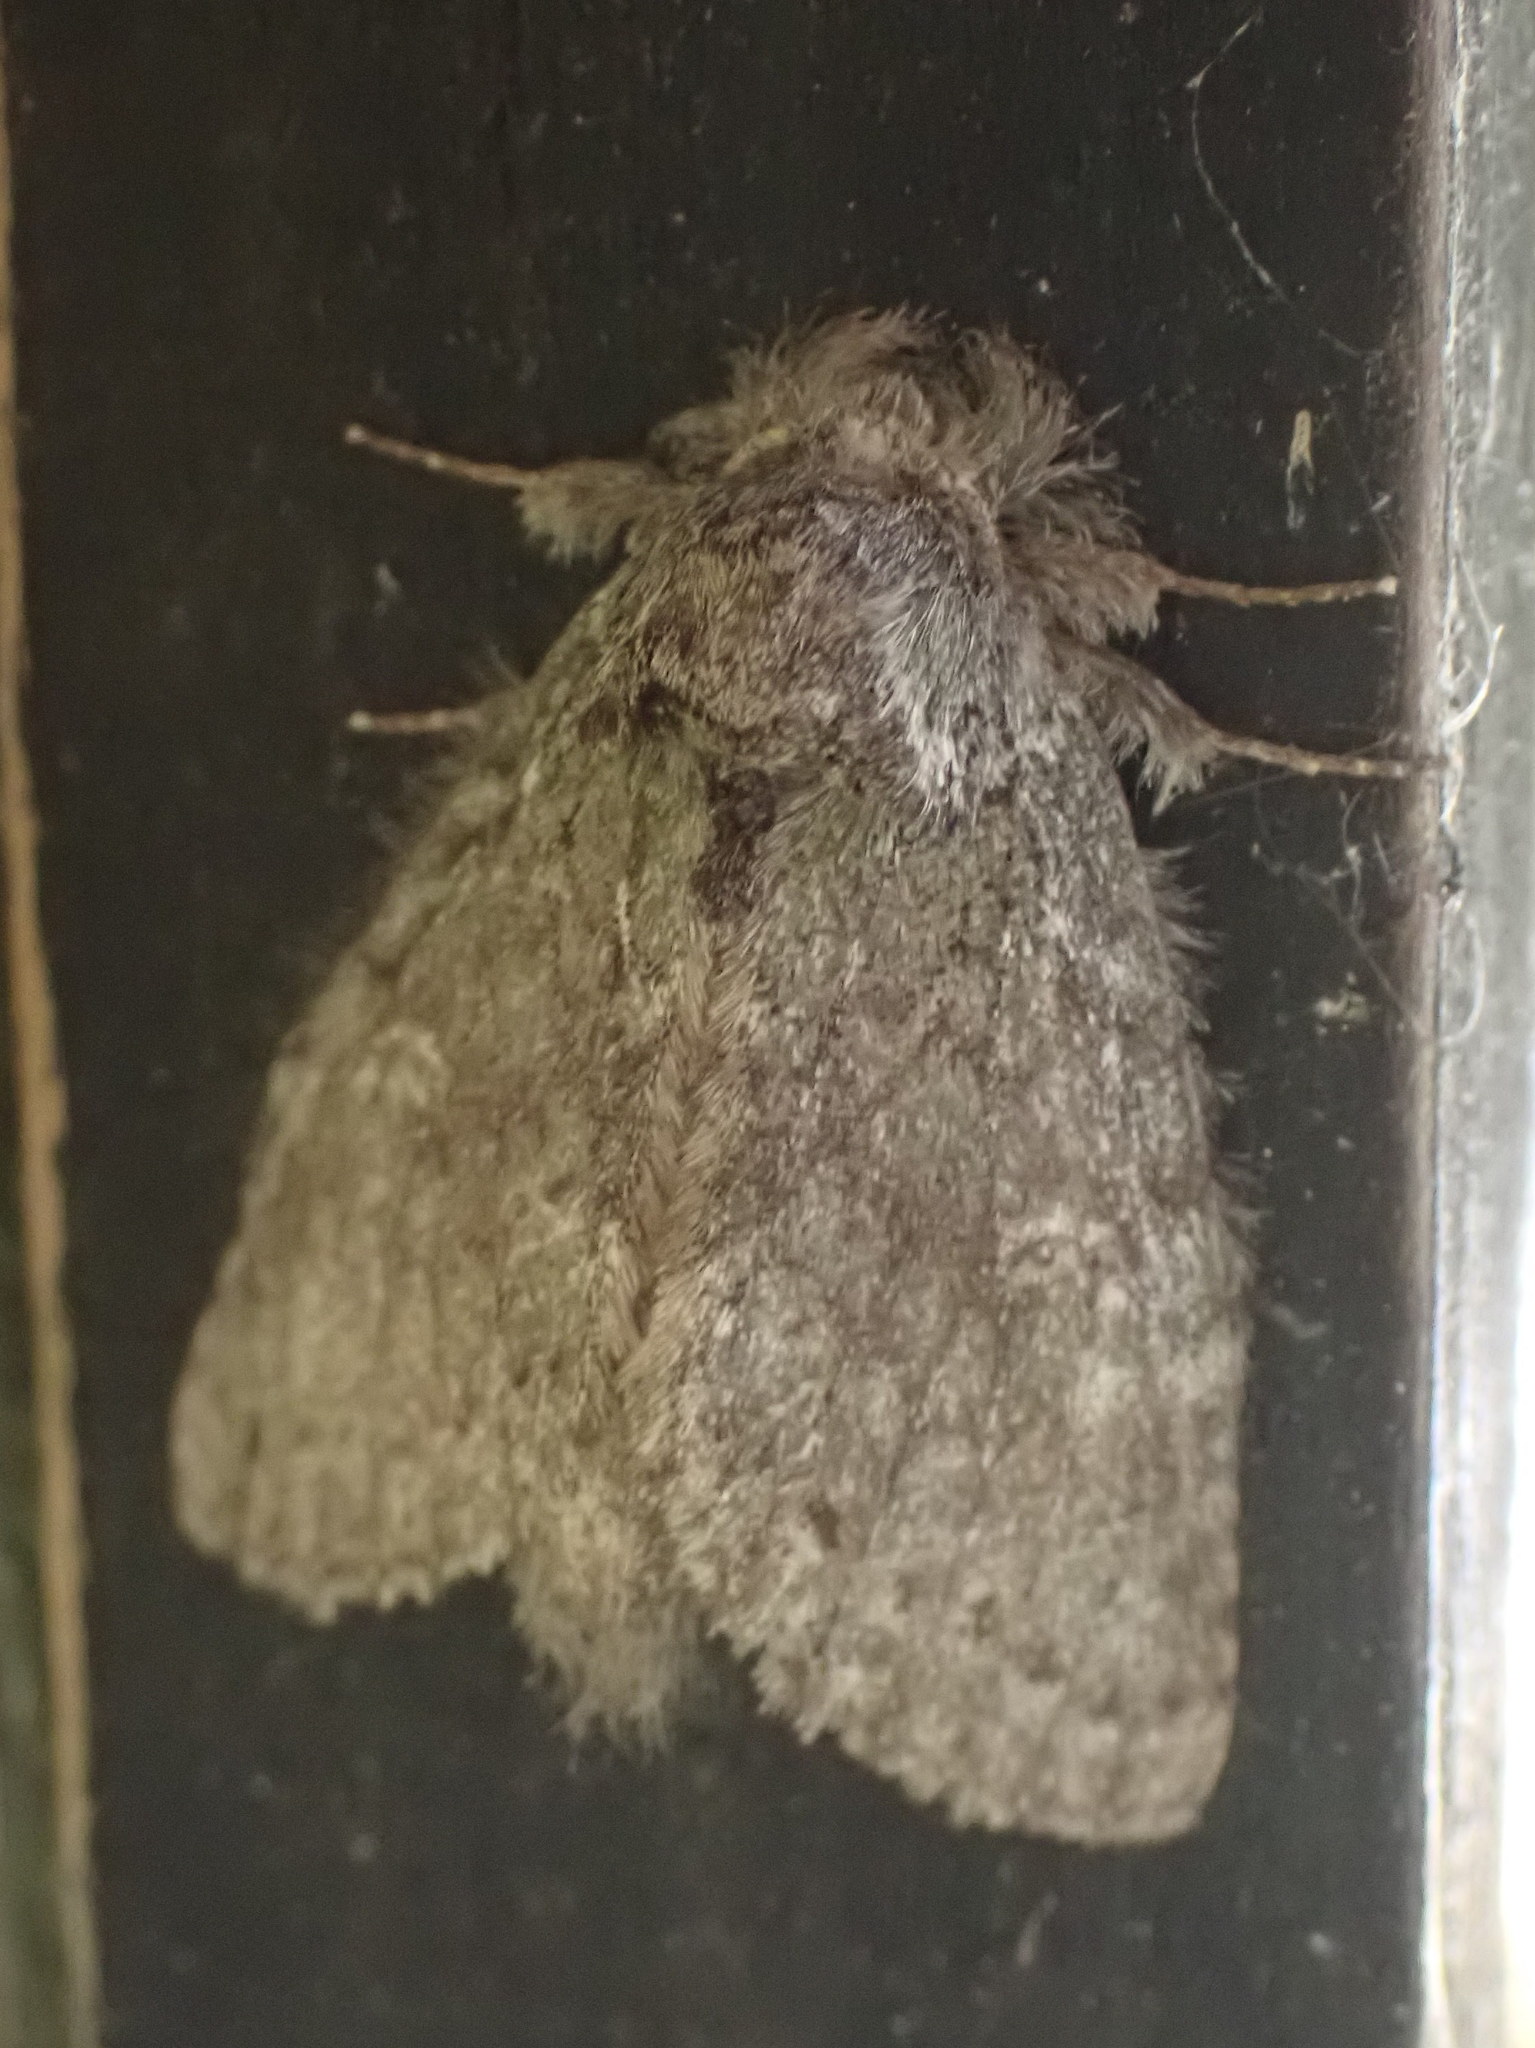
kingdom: Animalia
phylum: Arthropoda
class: Insecta
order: Lepidoptera
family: Notodontidae
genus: Disphragis
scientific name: Disphragis Cecrita guttivitta
